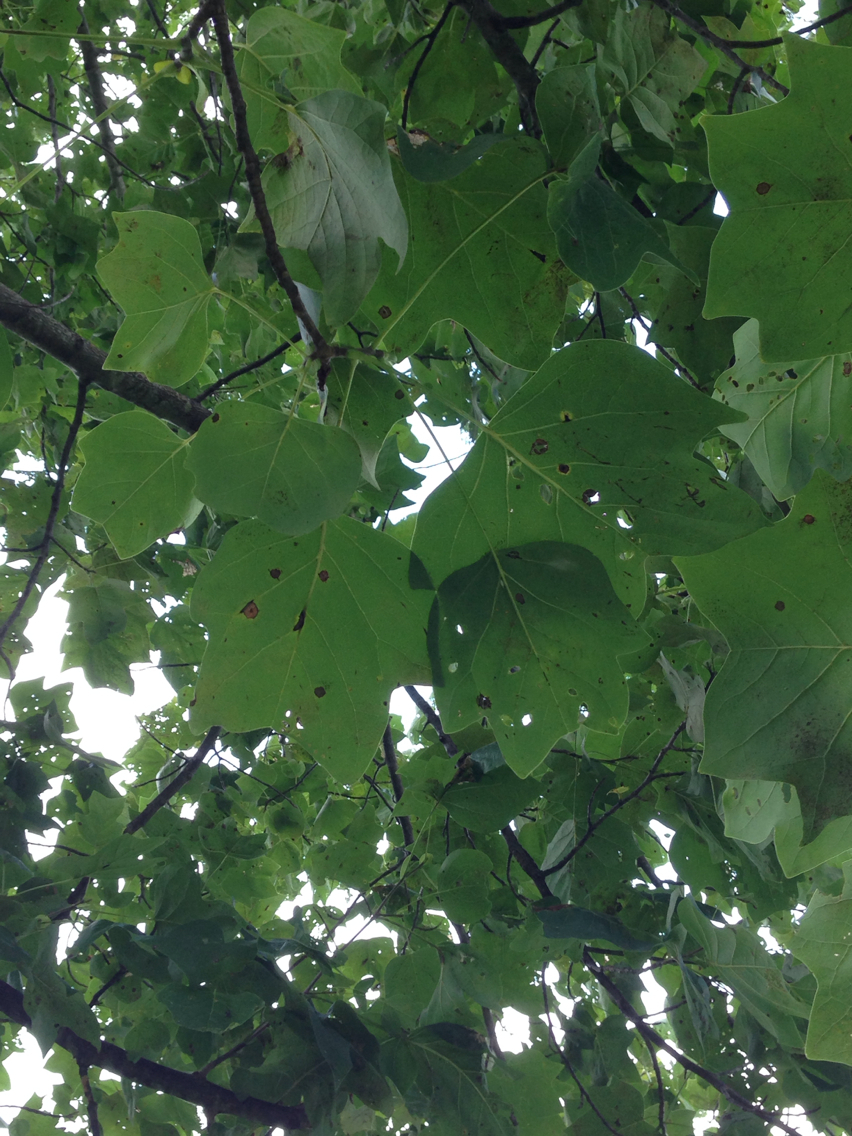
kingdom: Plantae
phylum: Tracheophyta
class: Magnoliopsida
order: Magnoliales
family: Magnoliaceae
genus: Liriodendron
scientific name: Liriodendron tulipifera
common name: Tulip tree
